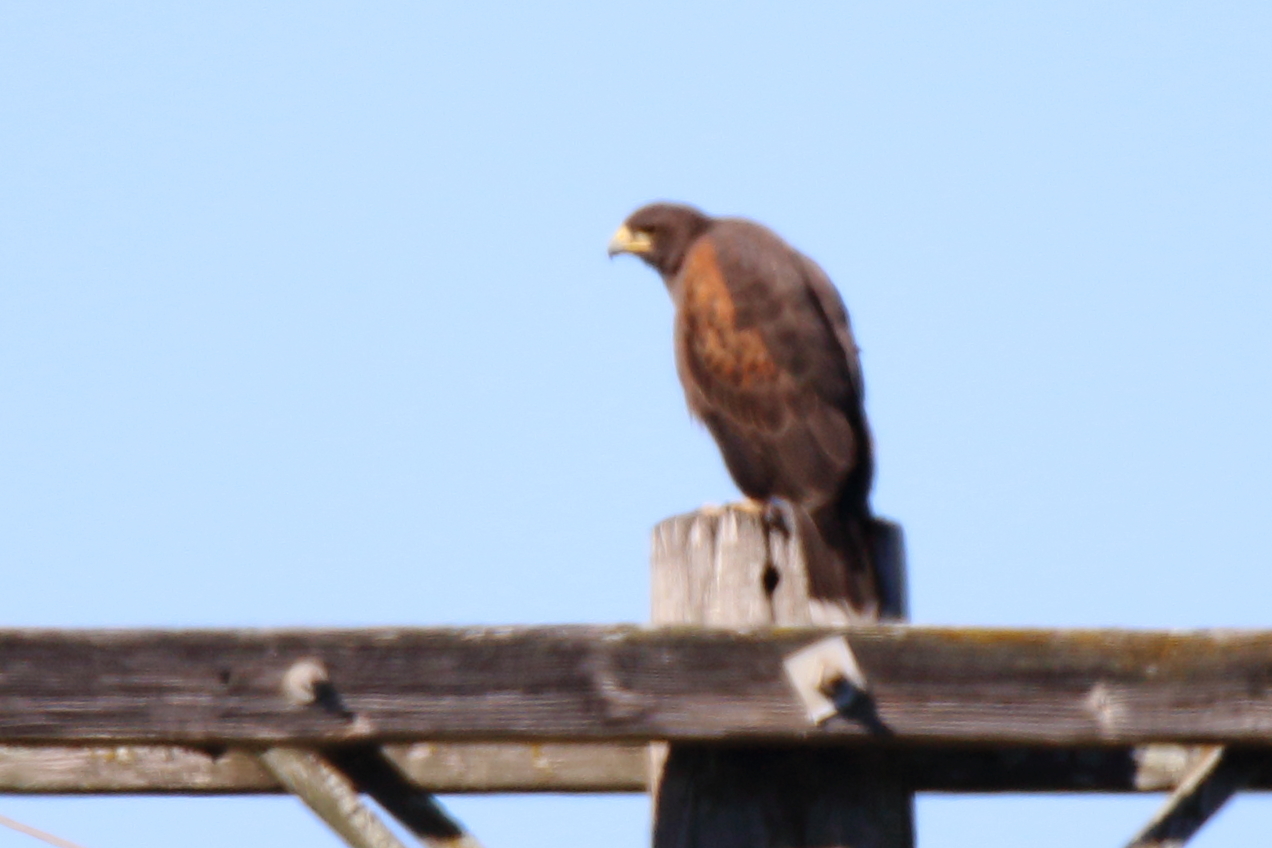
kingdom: Animalia
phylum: Chordata
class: Aves
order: Accipitriformes
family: Accipitridae
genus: Parabuteo
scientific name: Parabuteo unicinctus
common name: Harris's hawk
